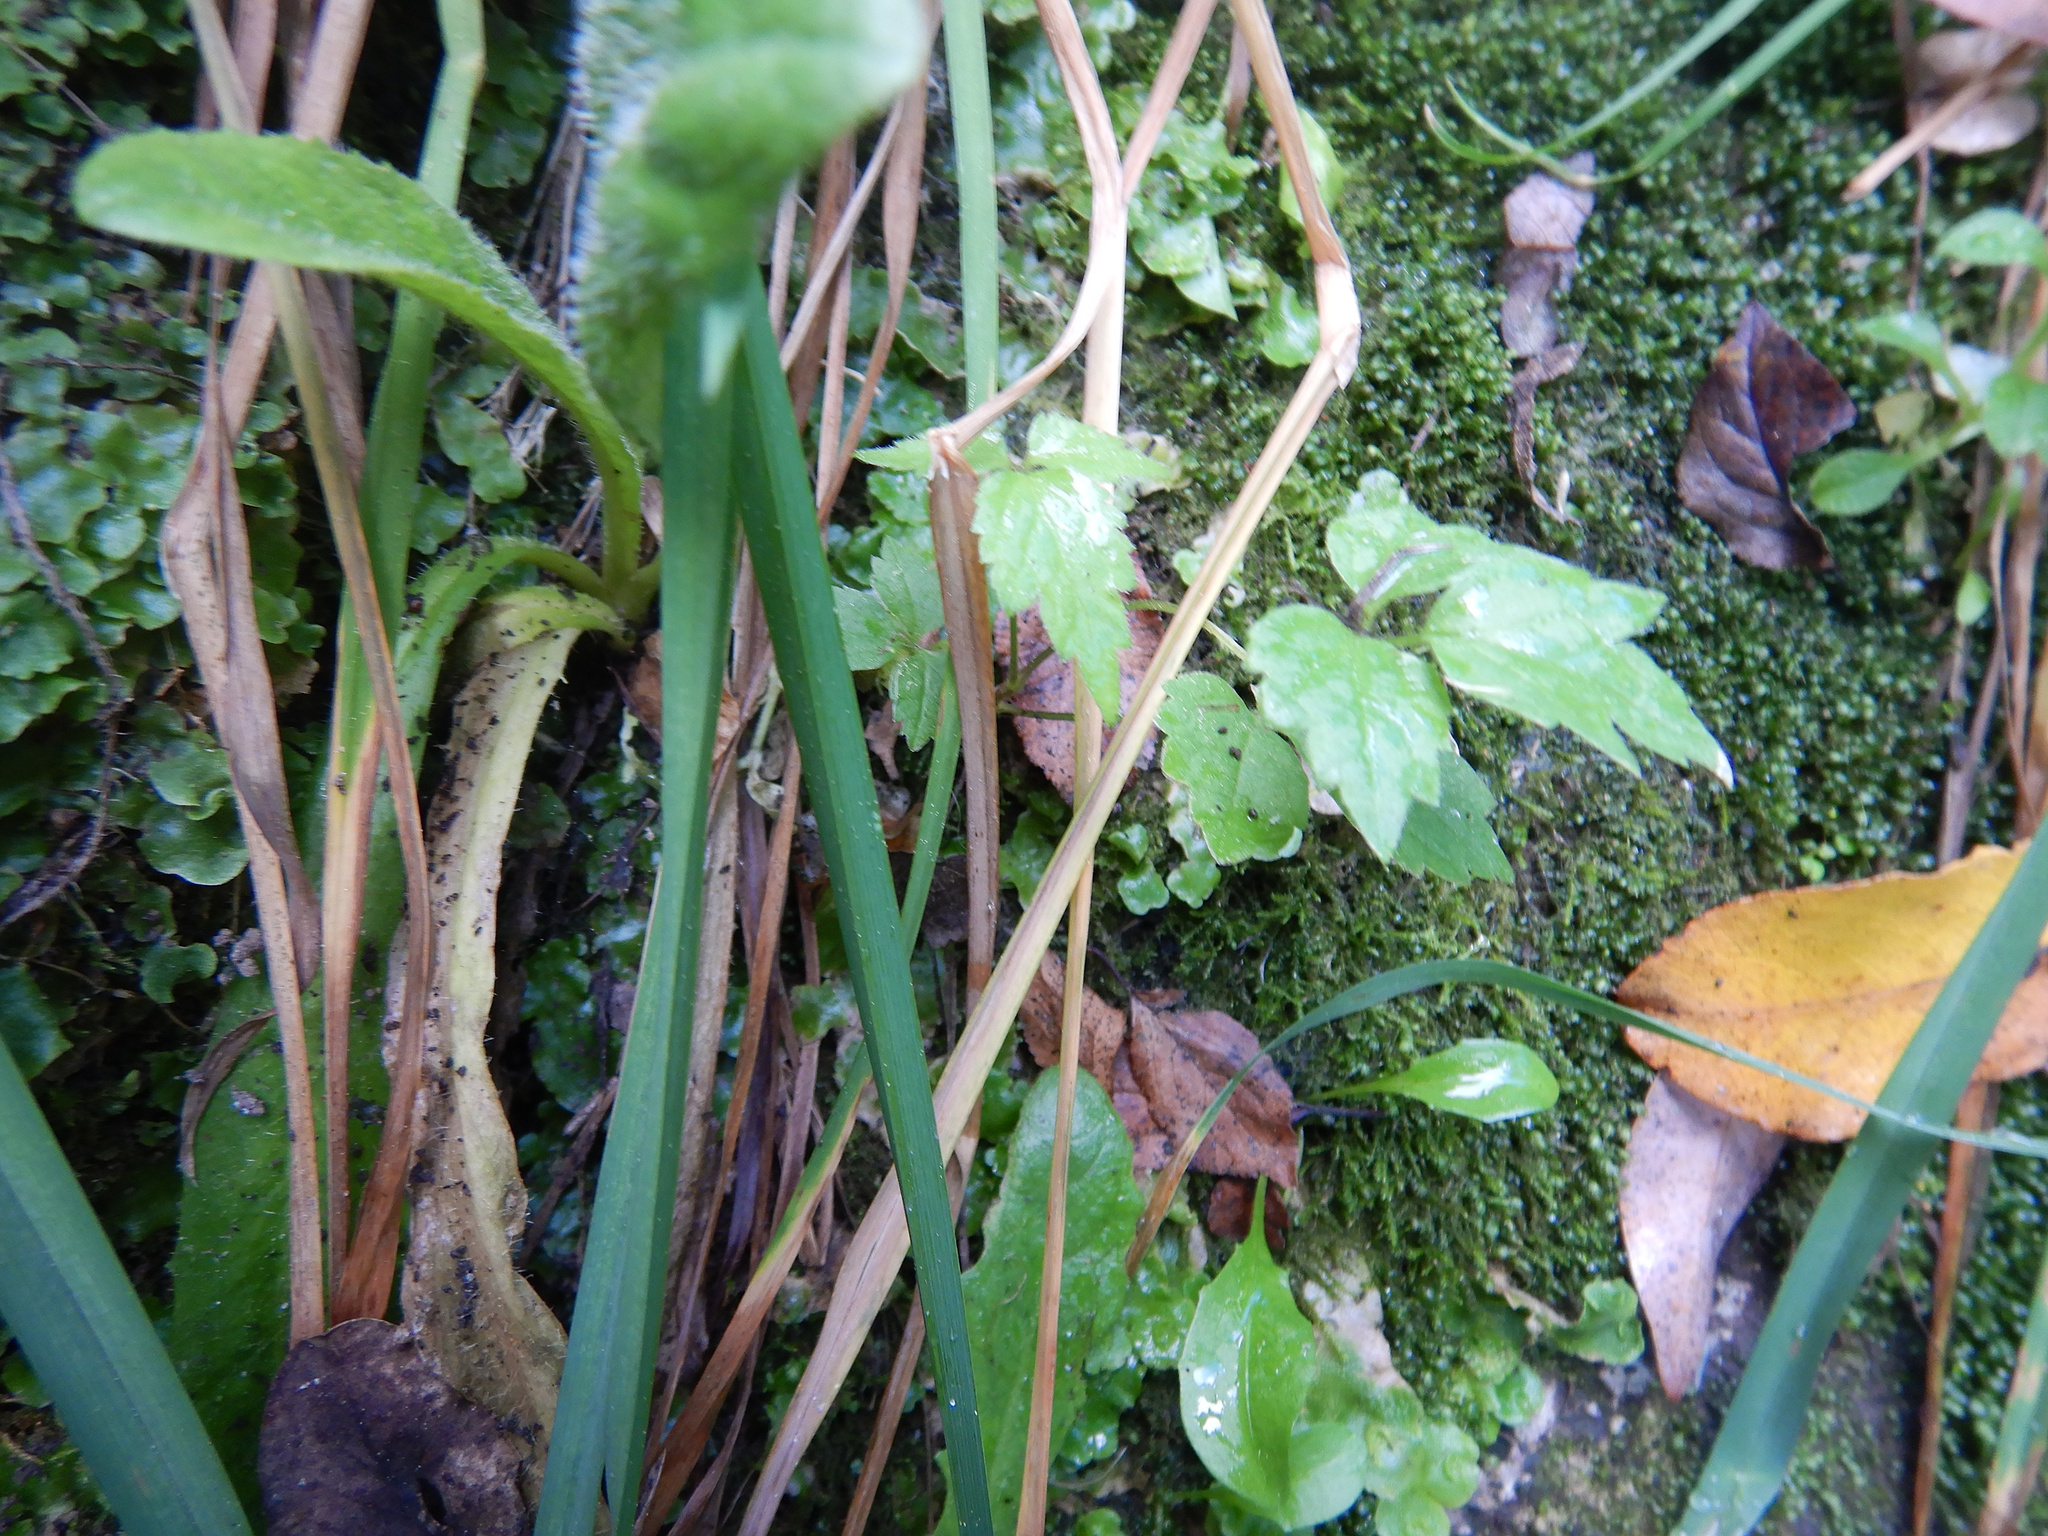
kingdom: Plantae
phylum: Tracheophyta
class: Magnoliopsida
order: Ranunculales
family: Ranunculaceae
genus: Clematis
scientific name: Clematis vitalba
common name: Evergreen clematis
